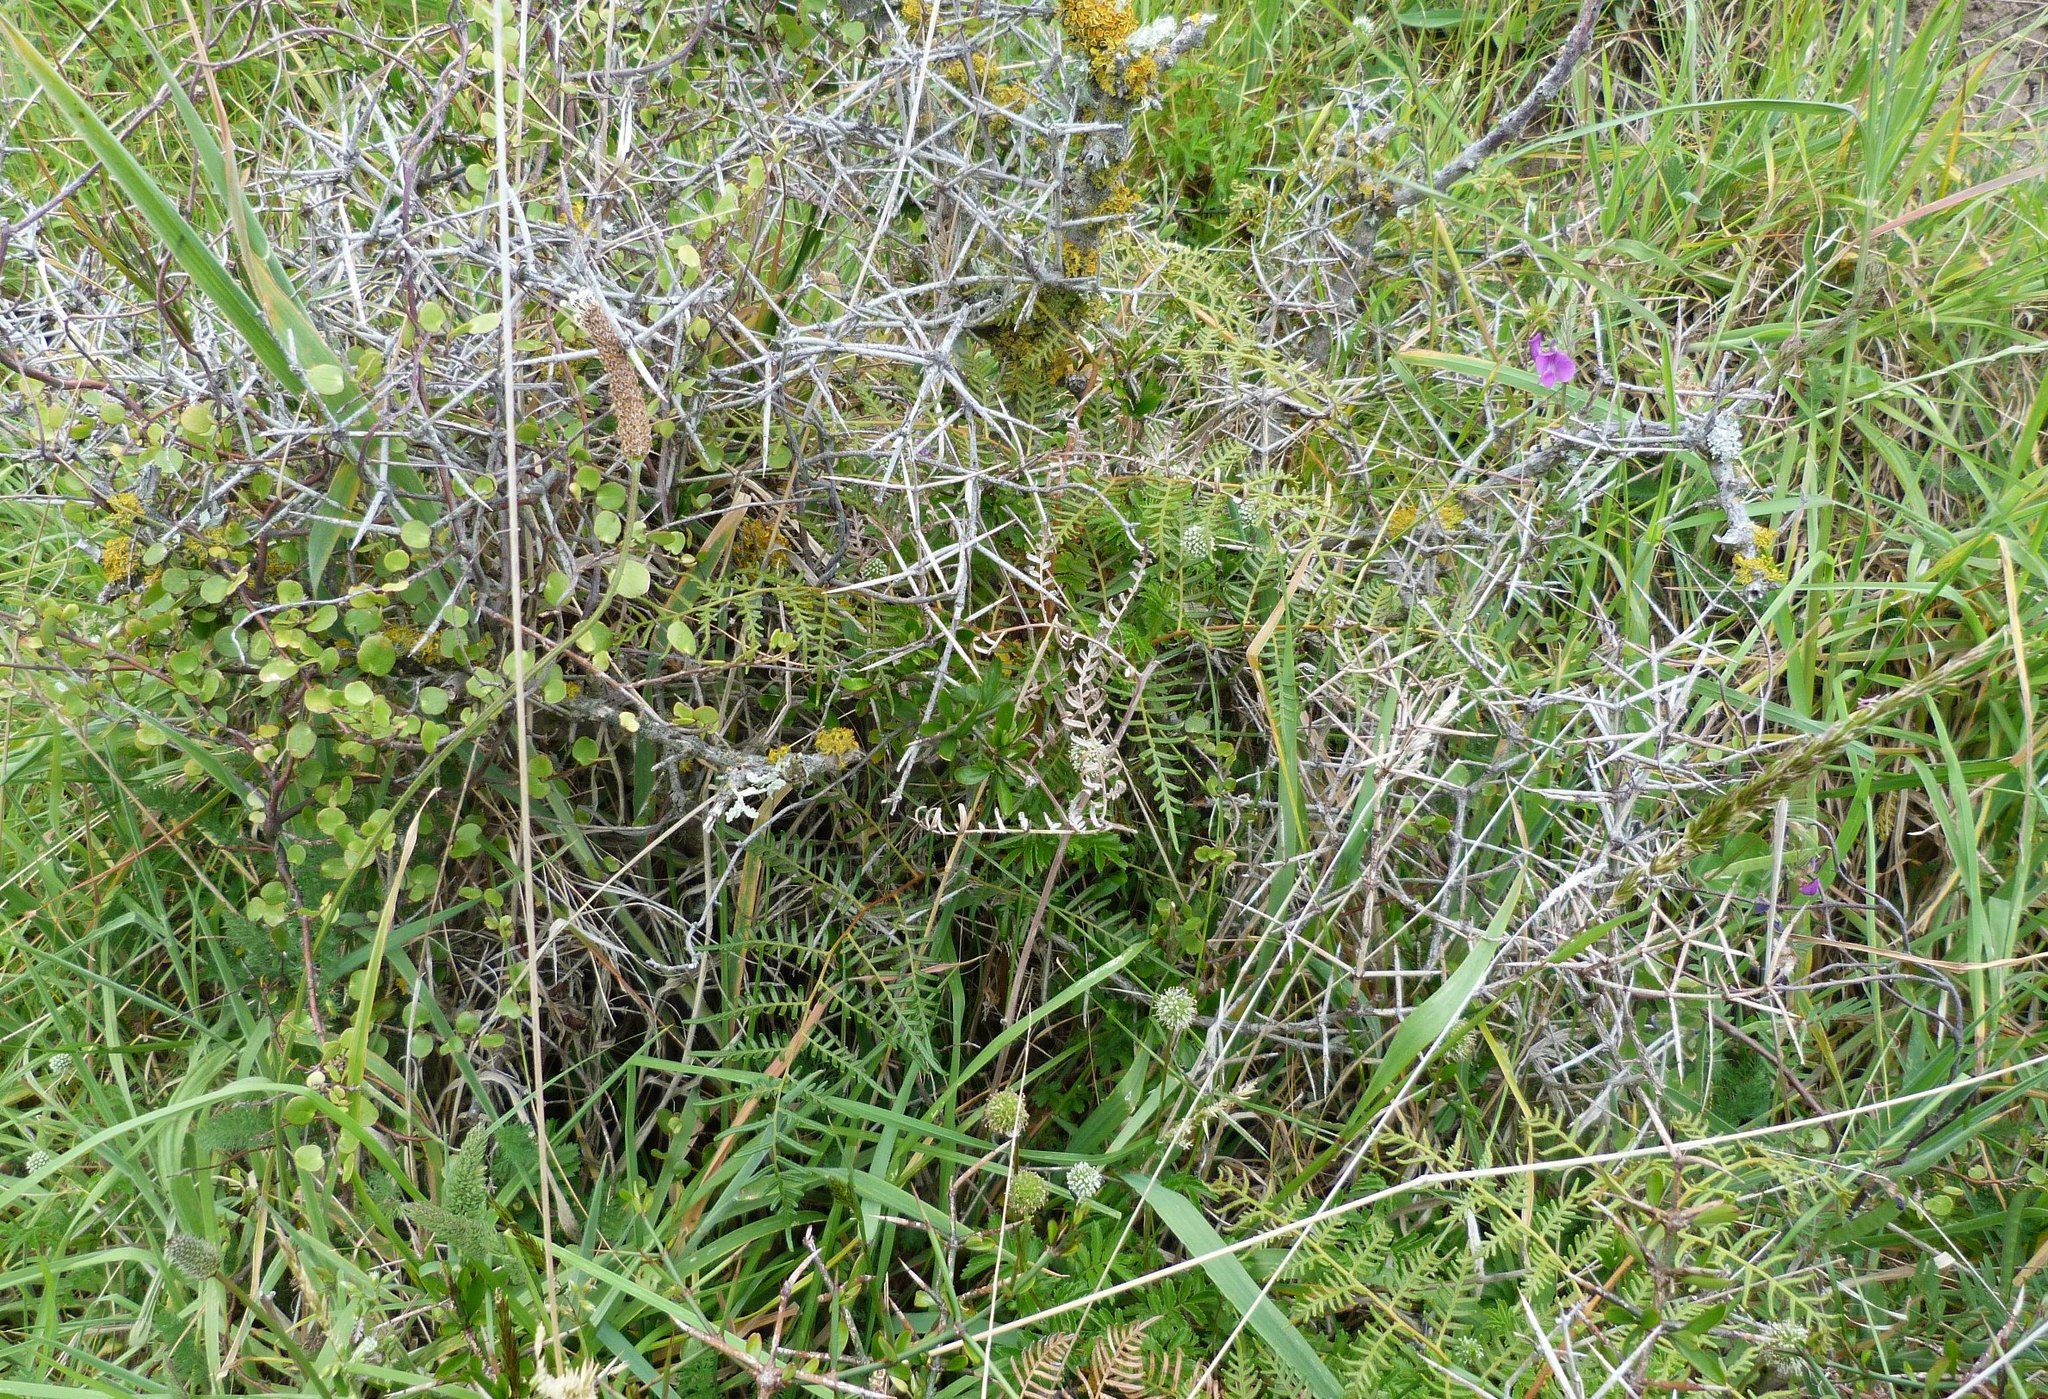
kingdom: Plantae
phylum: Tracheophyta
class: Magnoliopsida
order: Caryophyllales
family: Polygonaceae
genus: Muehlenbeckia
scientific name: Muehlenbeckia complexa
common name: Wireplant
